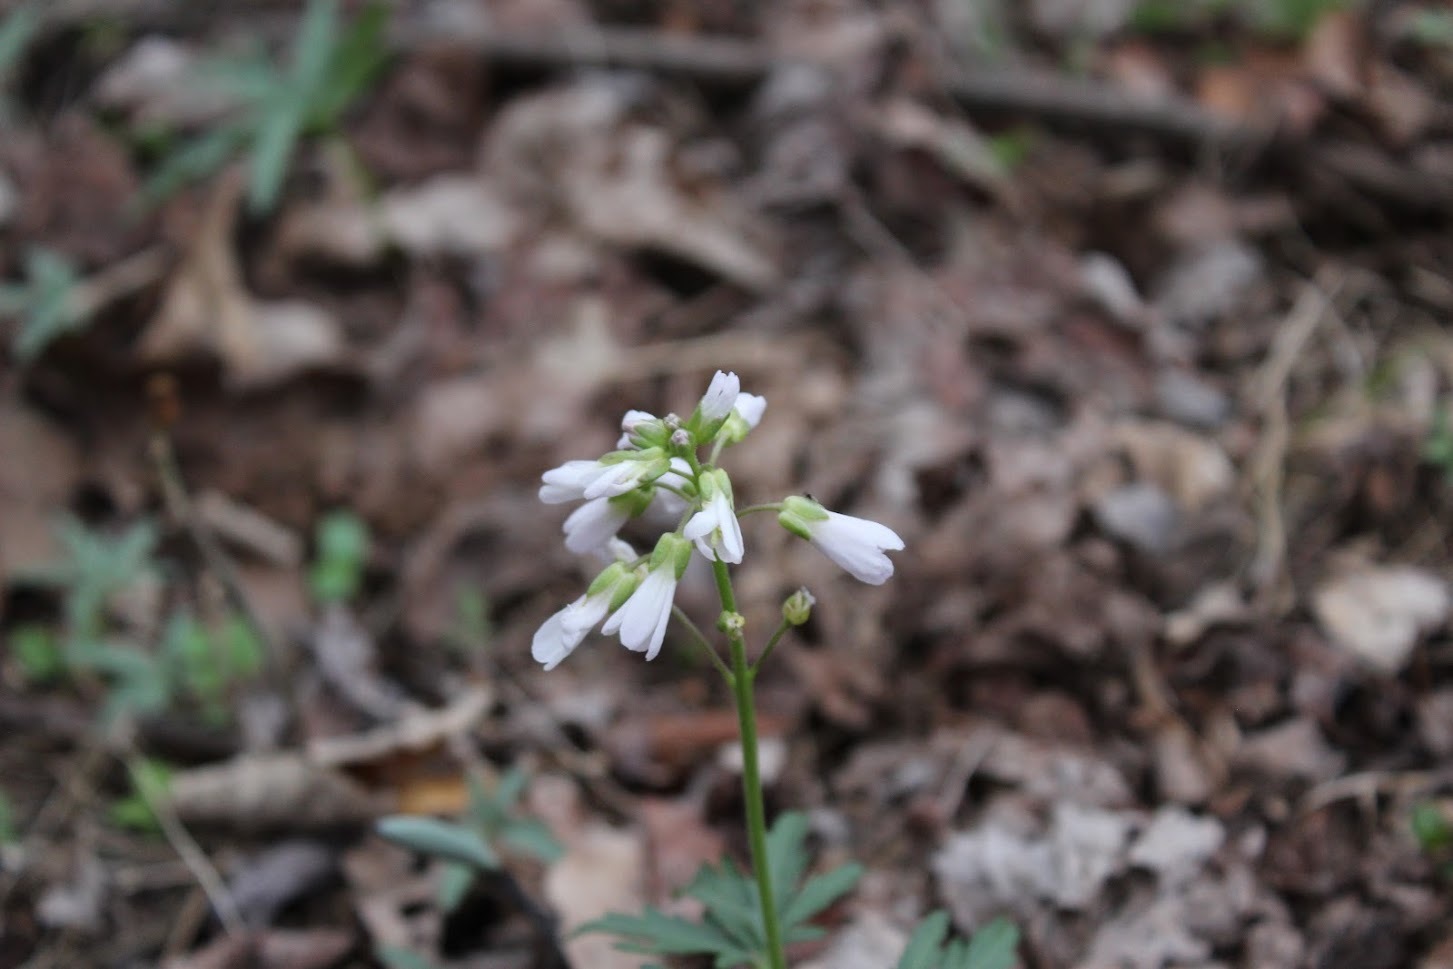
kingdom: Plantae
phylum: Tracheophyta
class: Magnoliopsida
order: Brassicales
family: Brassicaceae
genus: Cardamine
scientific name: Cardamine concatenata
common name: Cut-leaf toothcup
